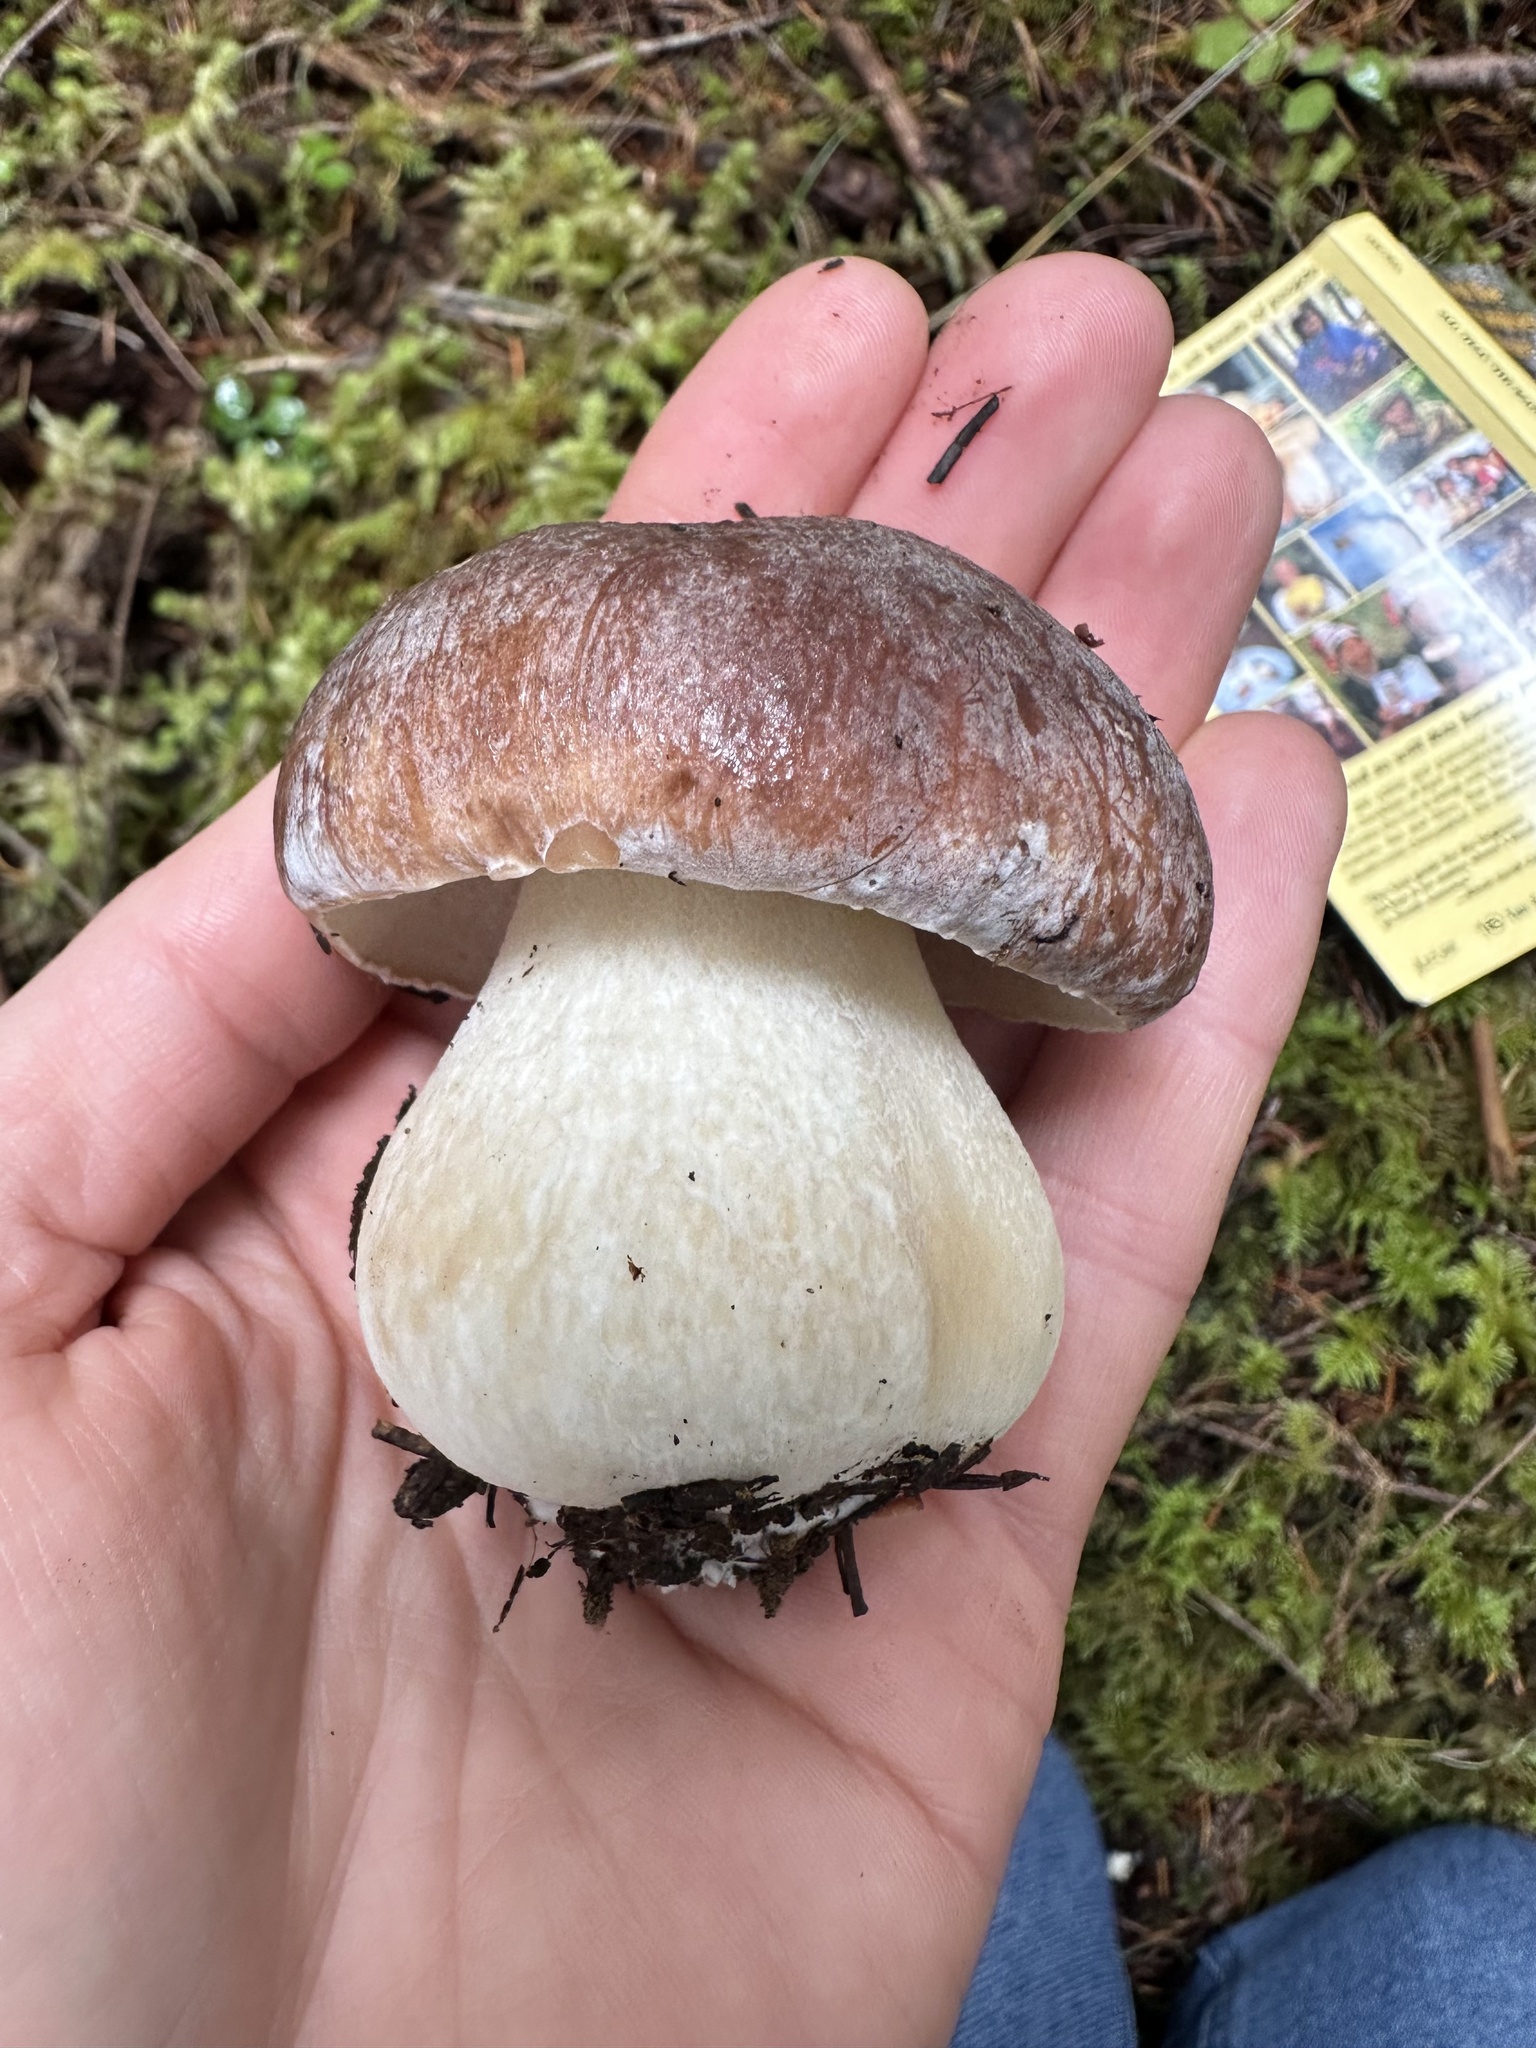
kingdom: Fungi
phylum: Basidiomycota
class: Agaricomycetes
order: Boletales
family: Boletaceae
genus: Boletus
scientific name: Boletus regineus
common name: Queen bolete
